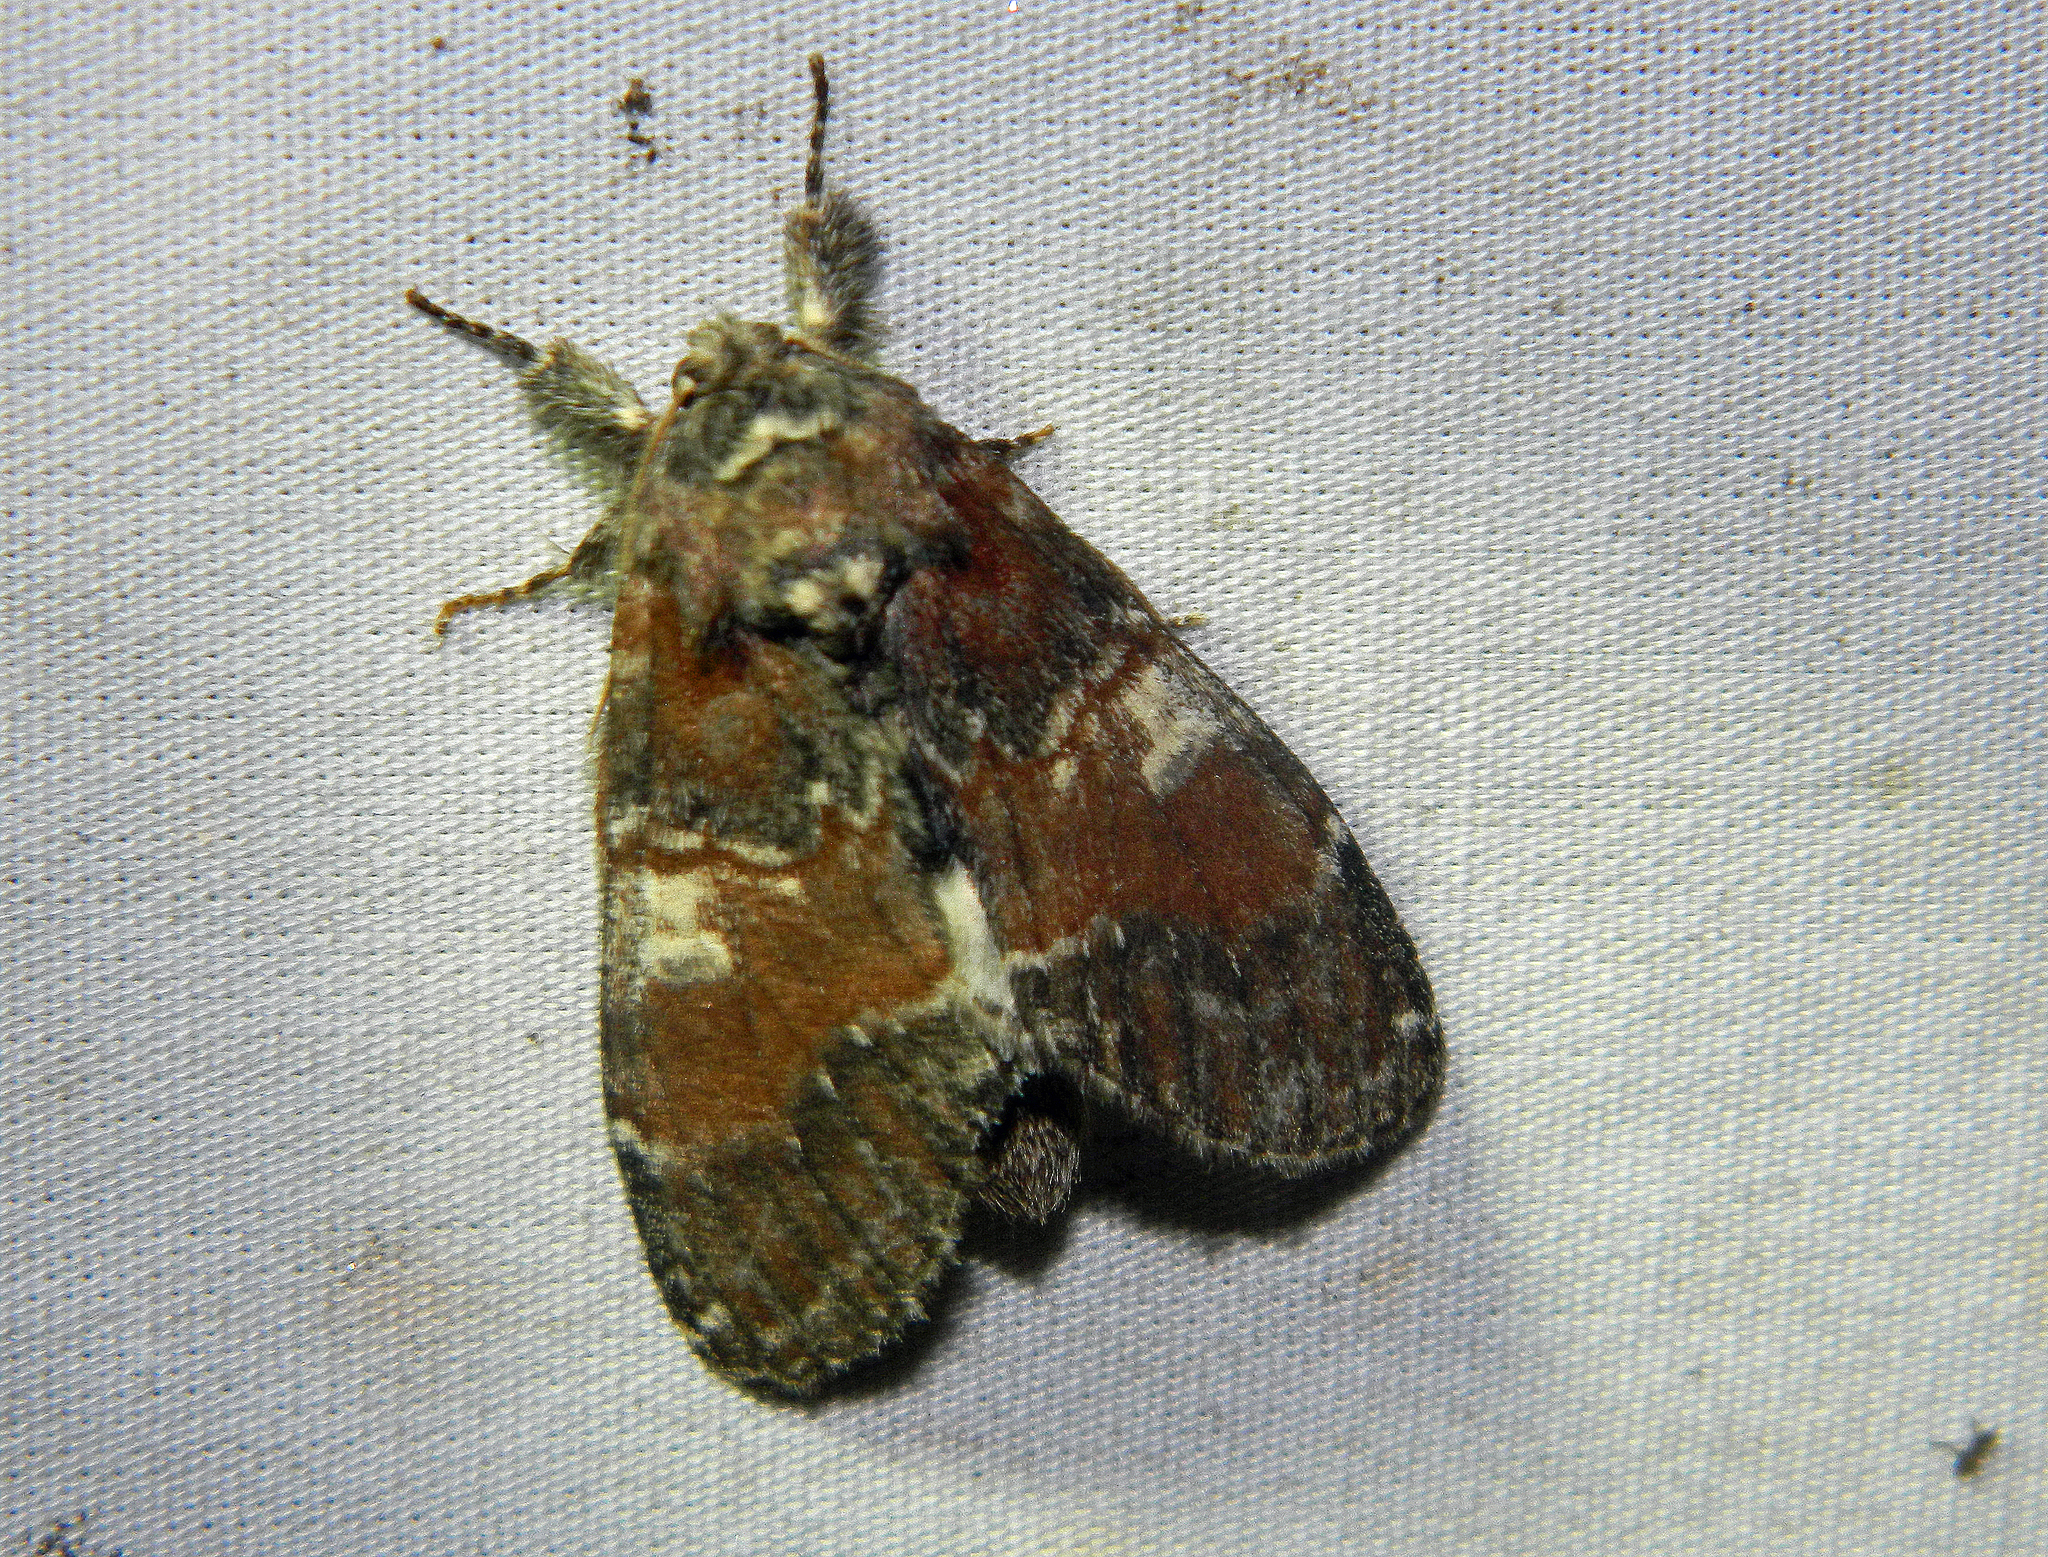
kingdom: Animalia
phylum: Arthropoda
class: Insecta
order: Lepidoptera
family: Notodontidae
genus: Peridea
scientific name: Peridea ferruginea
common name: Chocolate prominent
